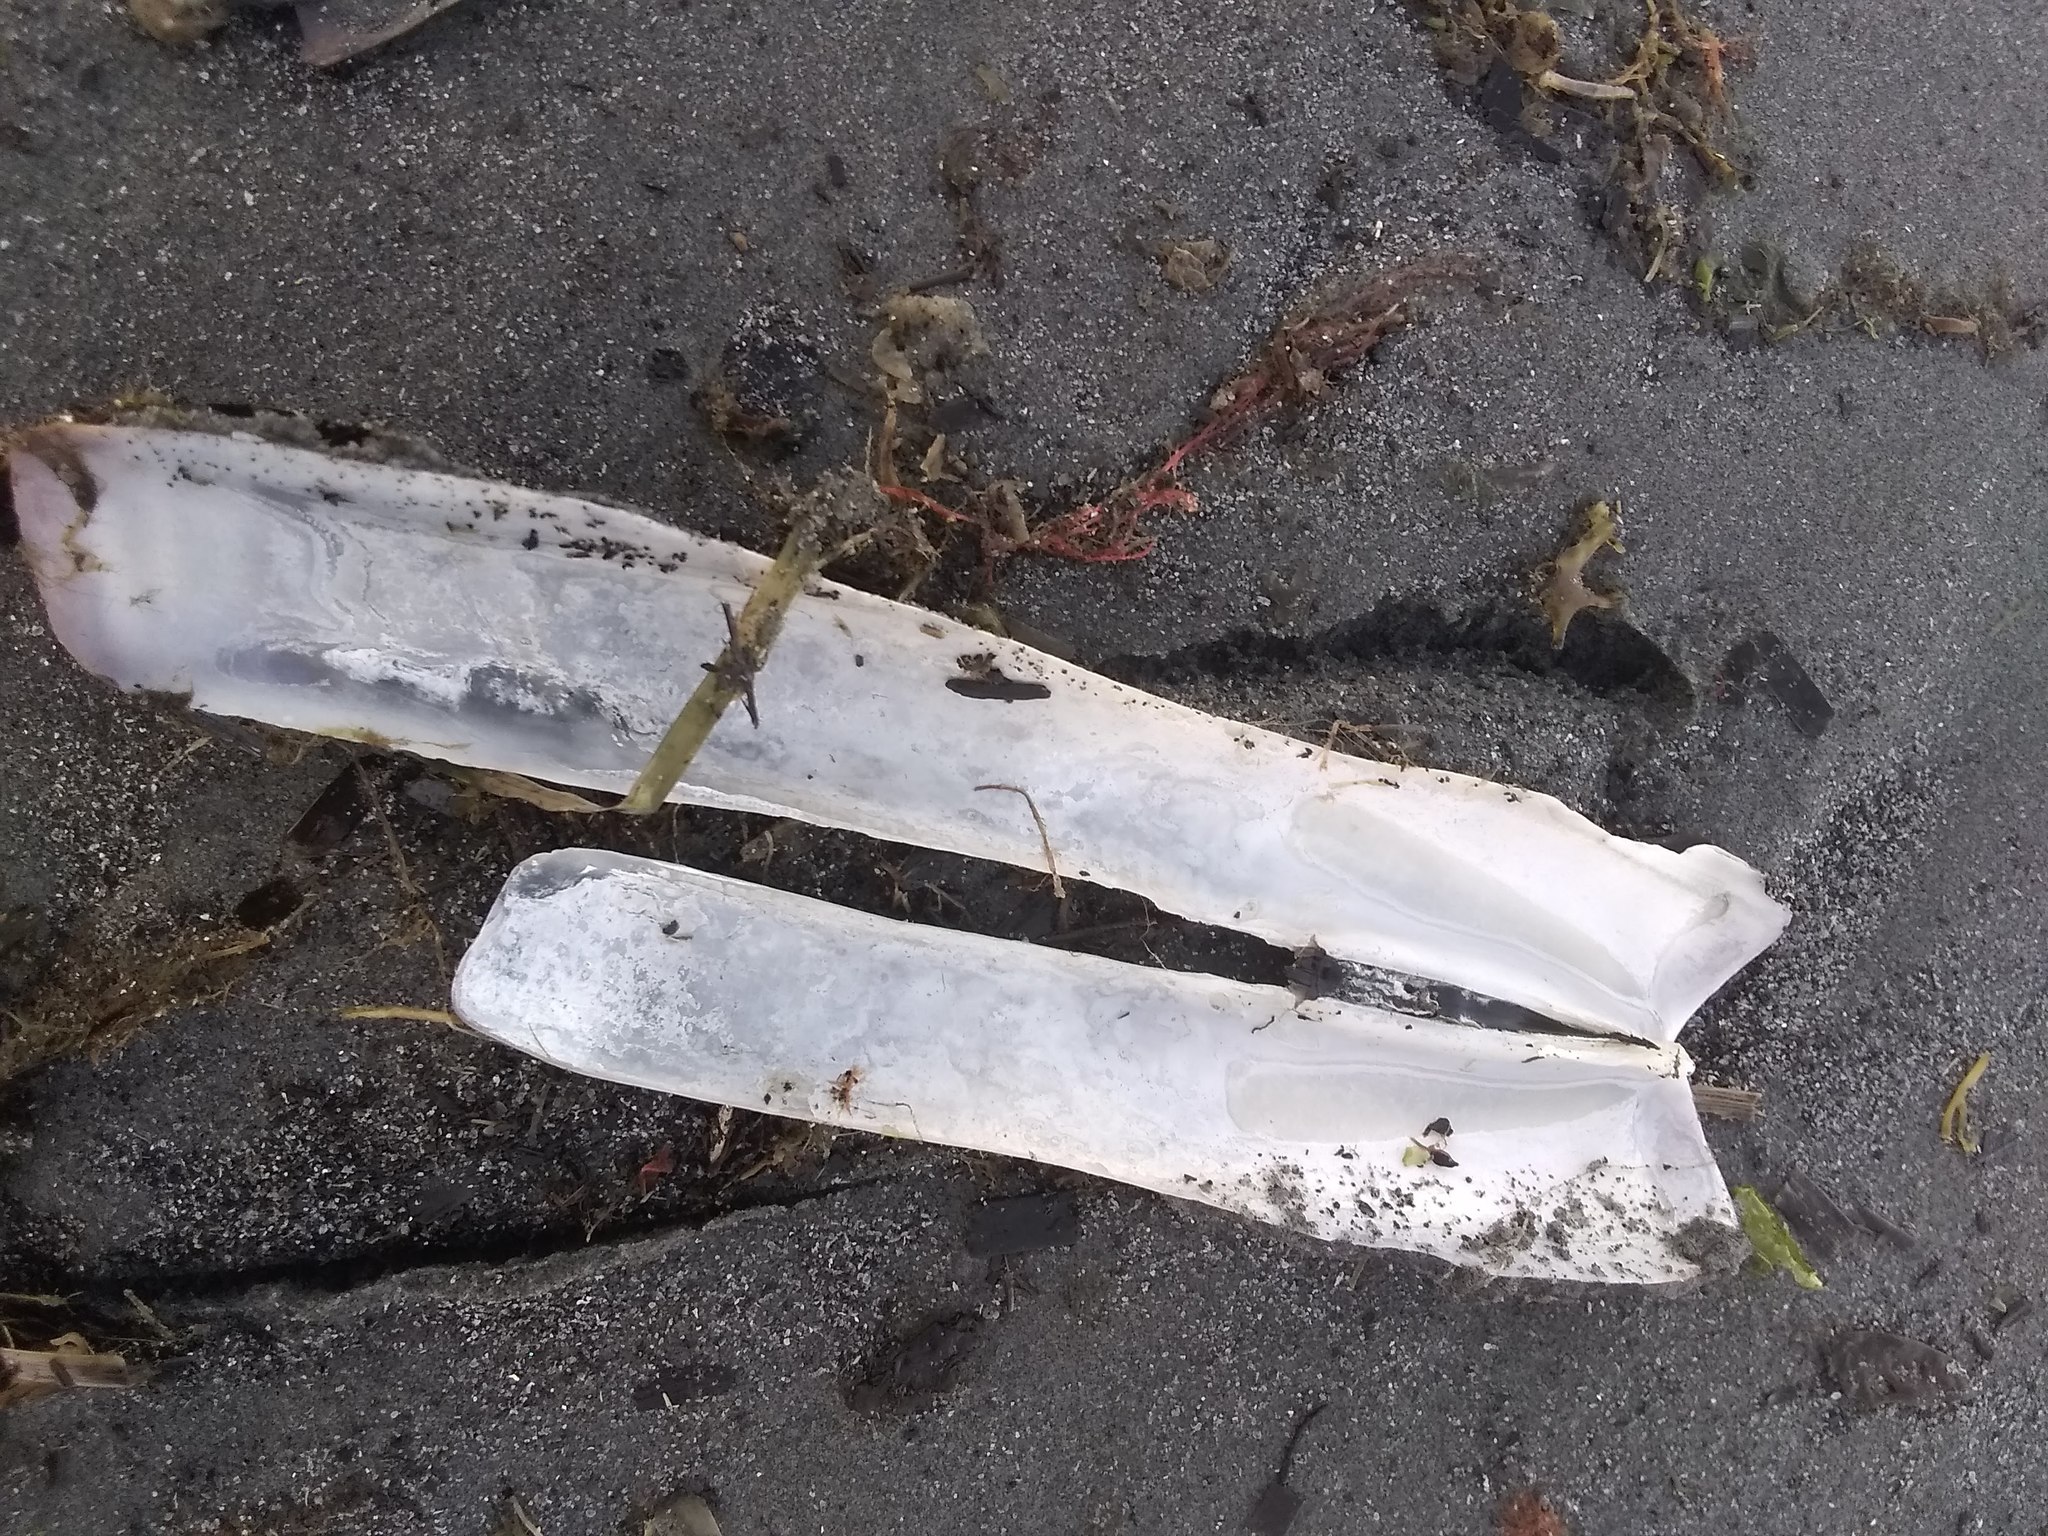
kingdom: Animalia
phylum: Mollusca
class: Bivalvia
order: Adapedonta
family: Pharidae
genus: Ensis
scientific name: Ensis leei
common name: American jack knife clam
